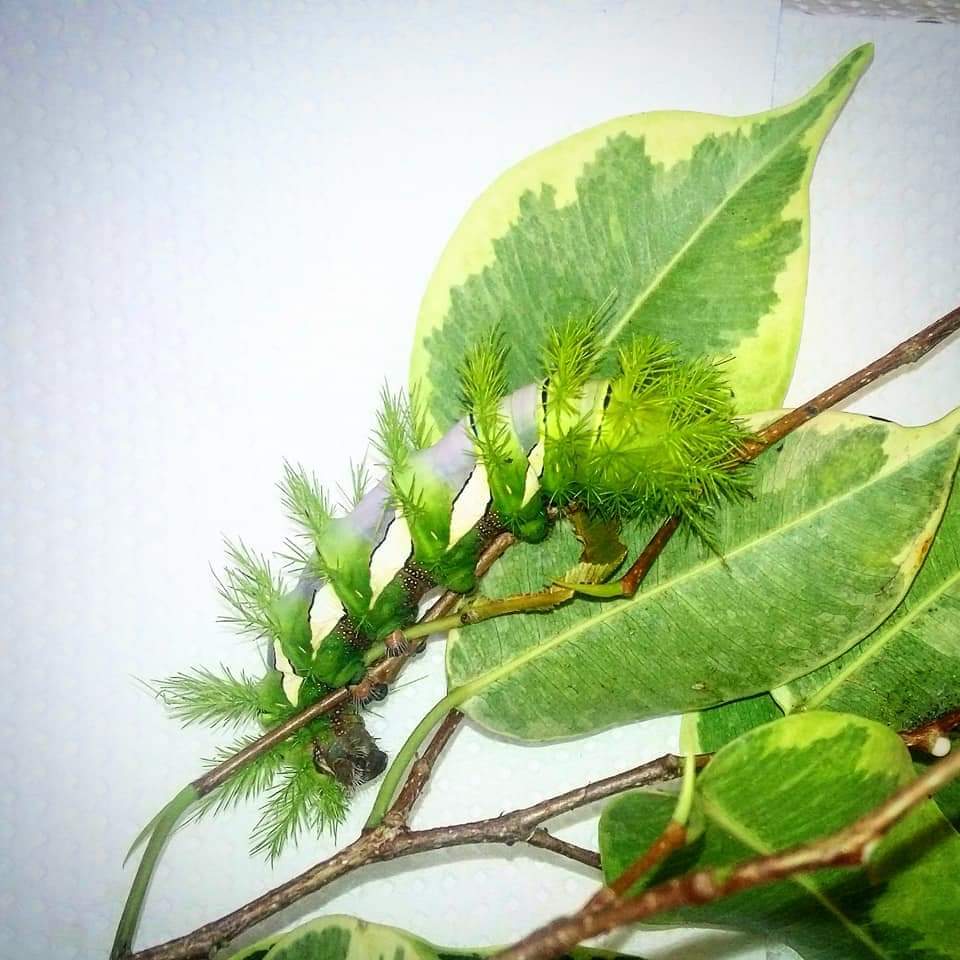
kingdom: Animalia
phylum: Arthropoda
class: Insecta
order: Lepidoptera
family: Saturniidae
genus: Automeris
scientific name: Automeris naranja
